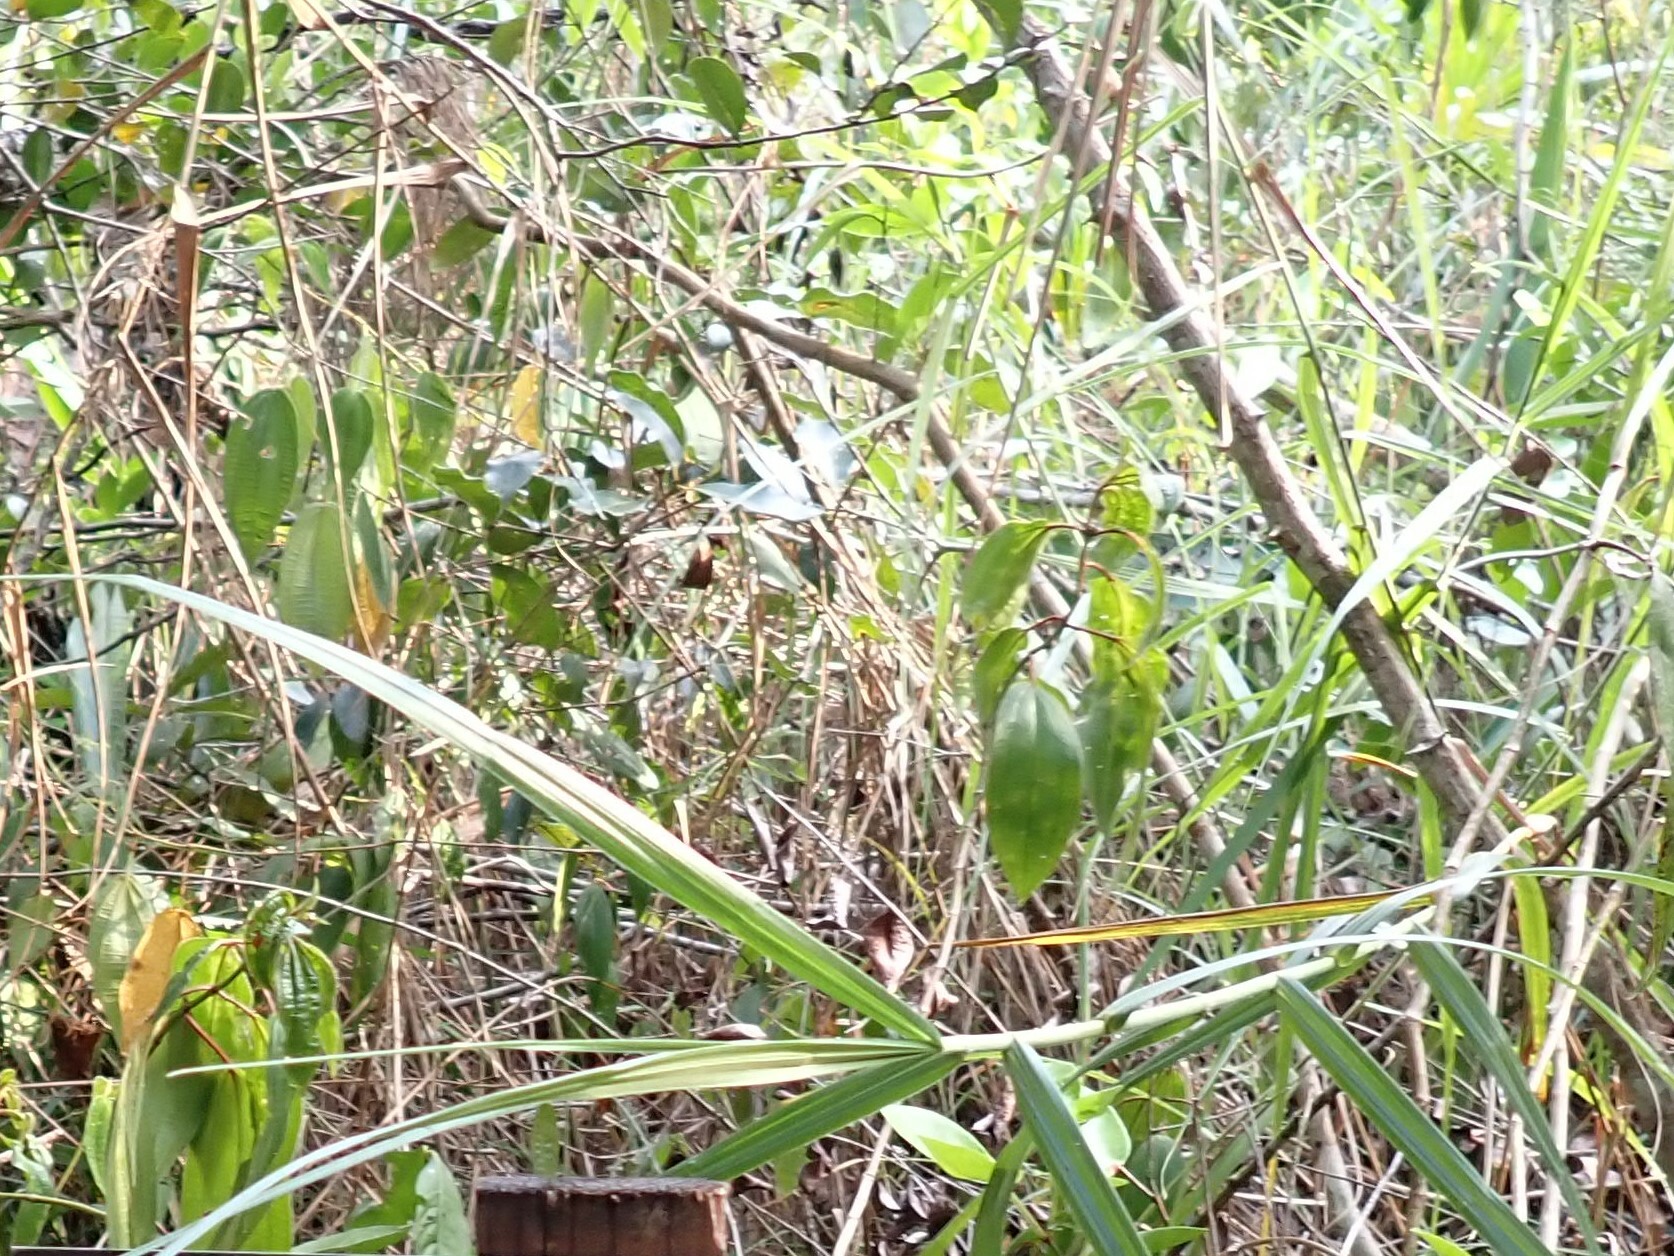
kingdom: Plantae
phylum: Tracheophyta
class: Liliopsida
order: Poales
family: Cyperaceae
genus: Scleria
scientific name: Scleria bracteata
